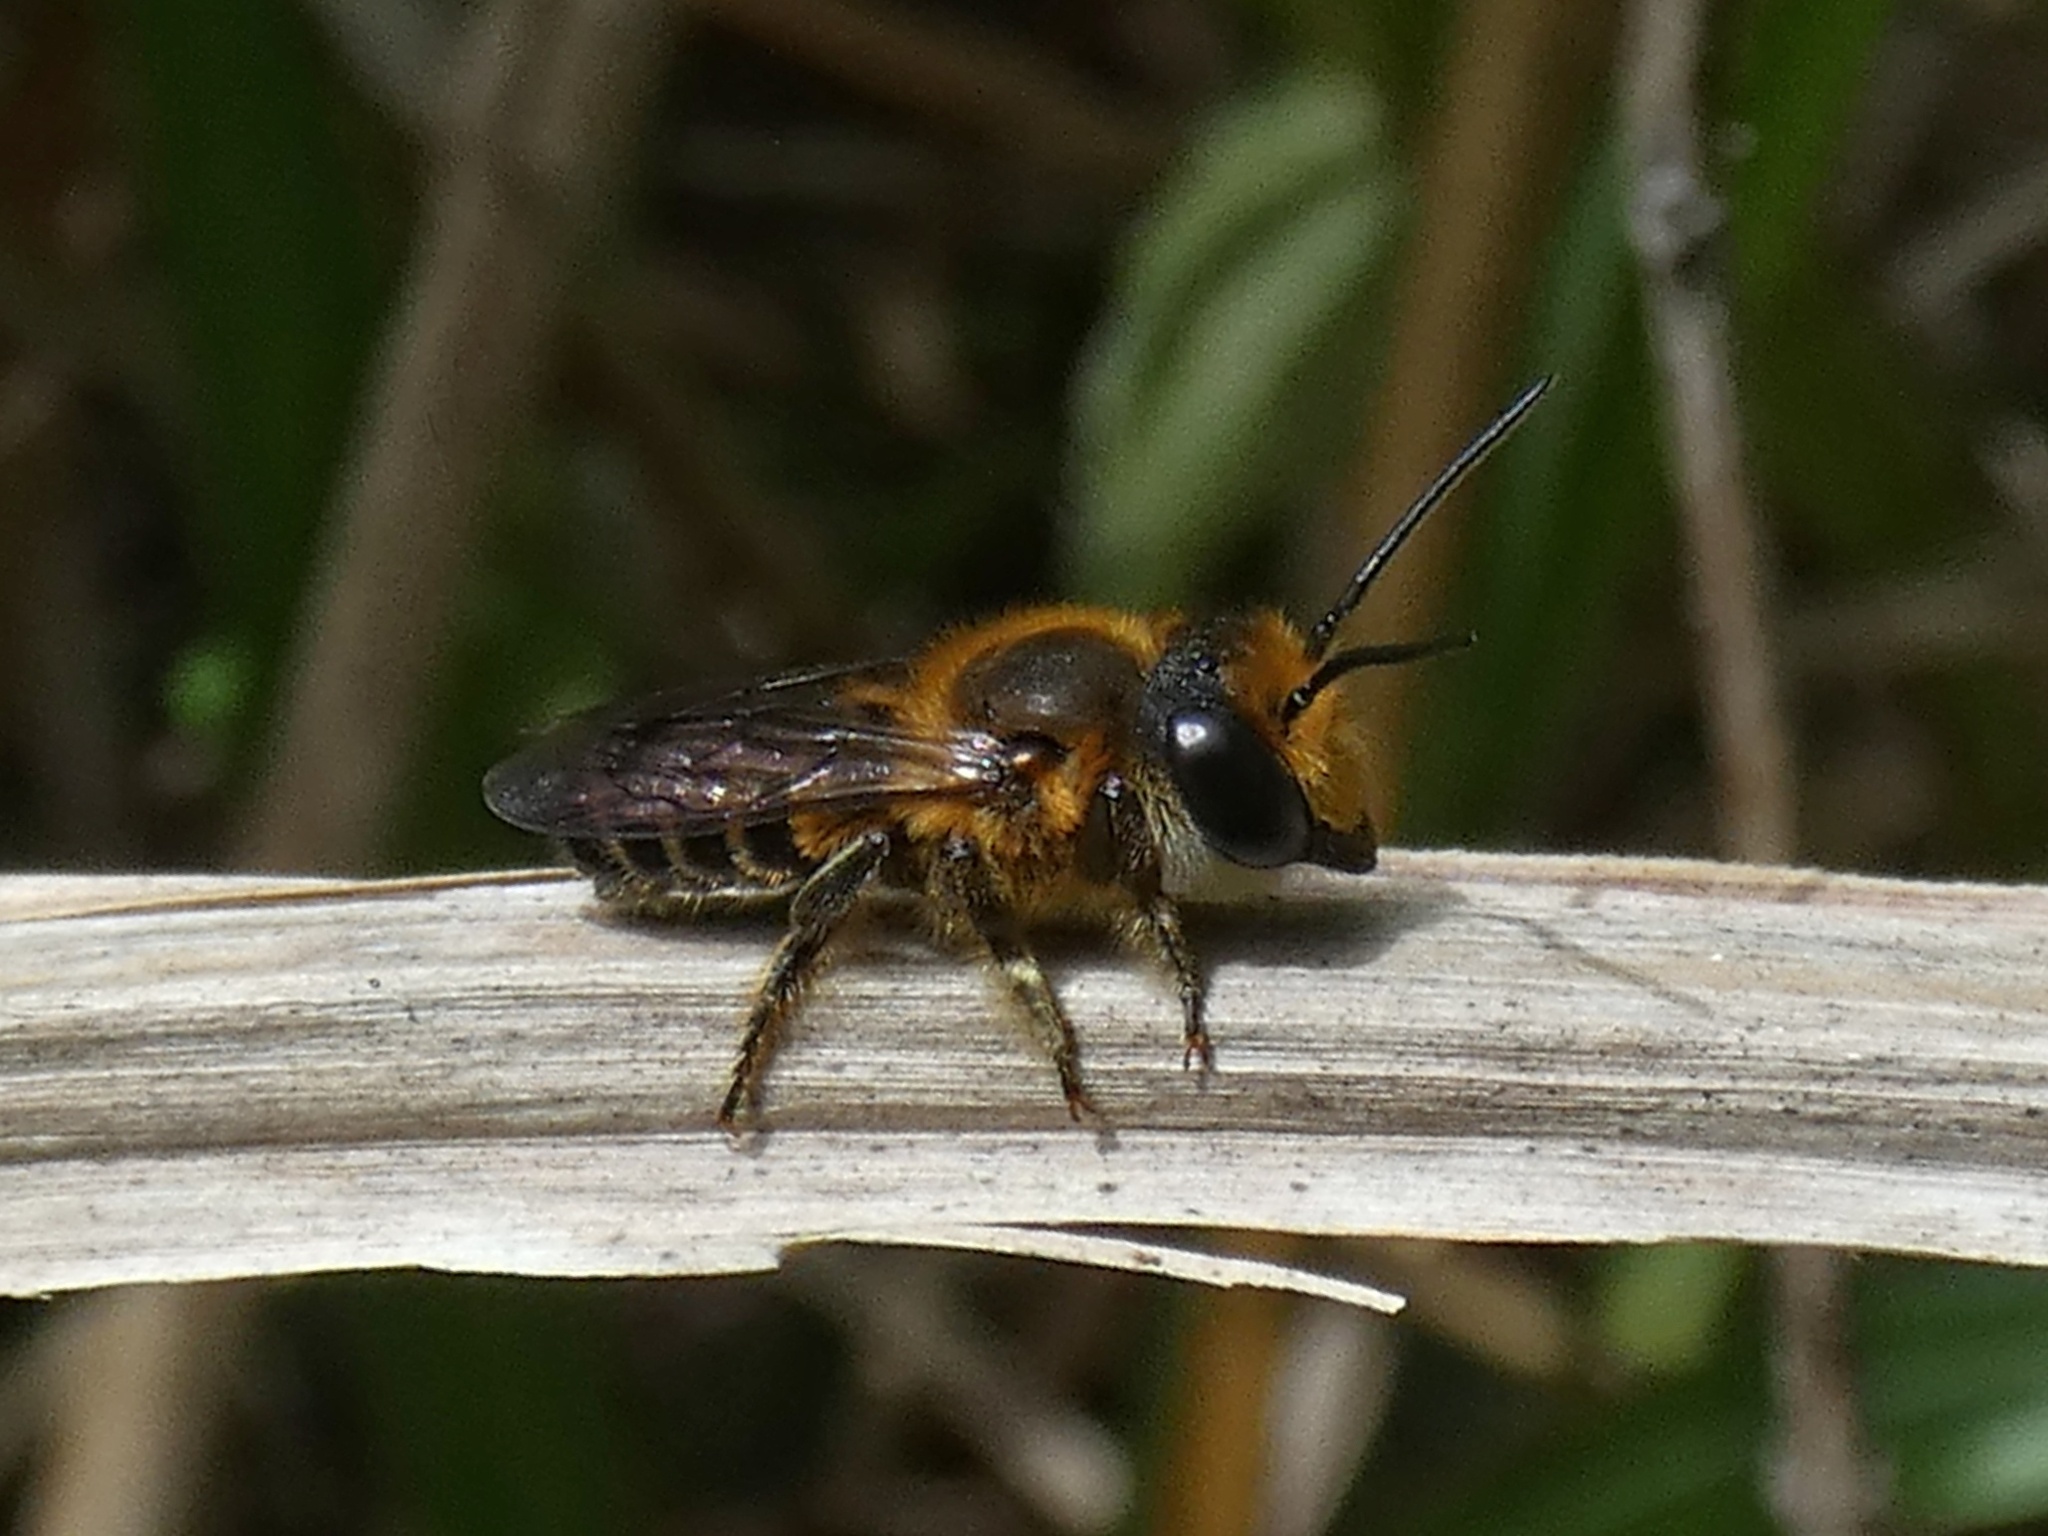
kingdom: Animalia
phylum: Arthropoda
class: Insecta
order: Hymenoptera
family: Megachilidae
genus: Megachile
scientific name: Megachile laticeps
